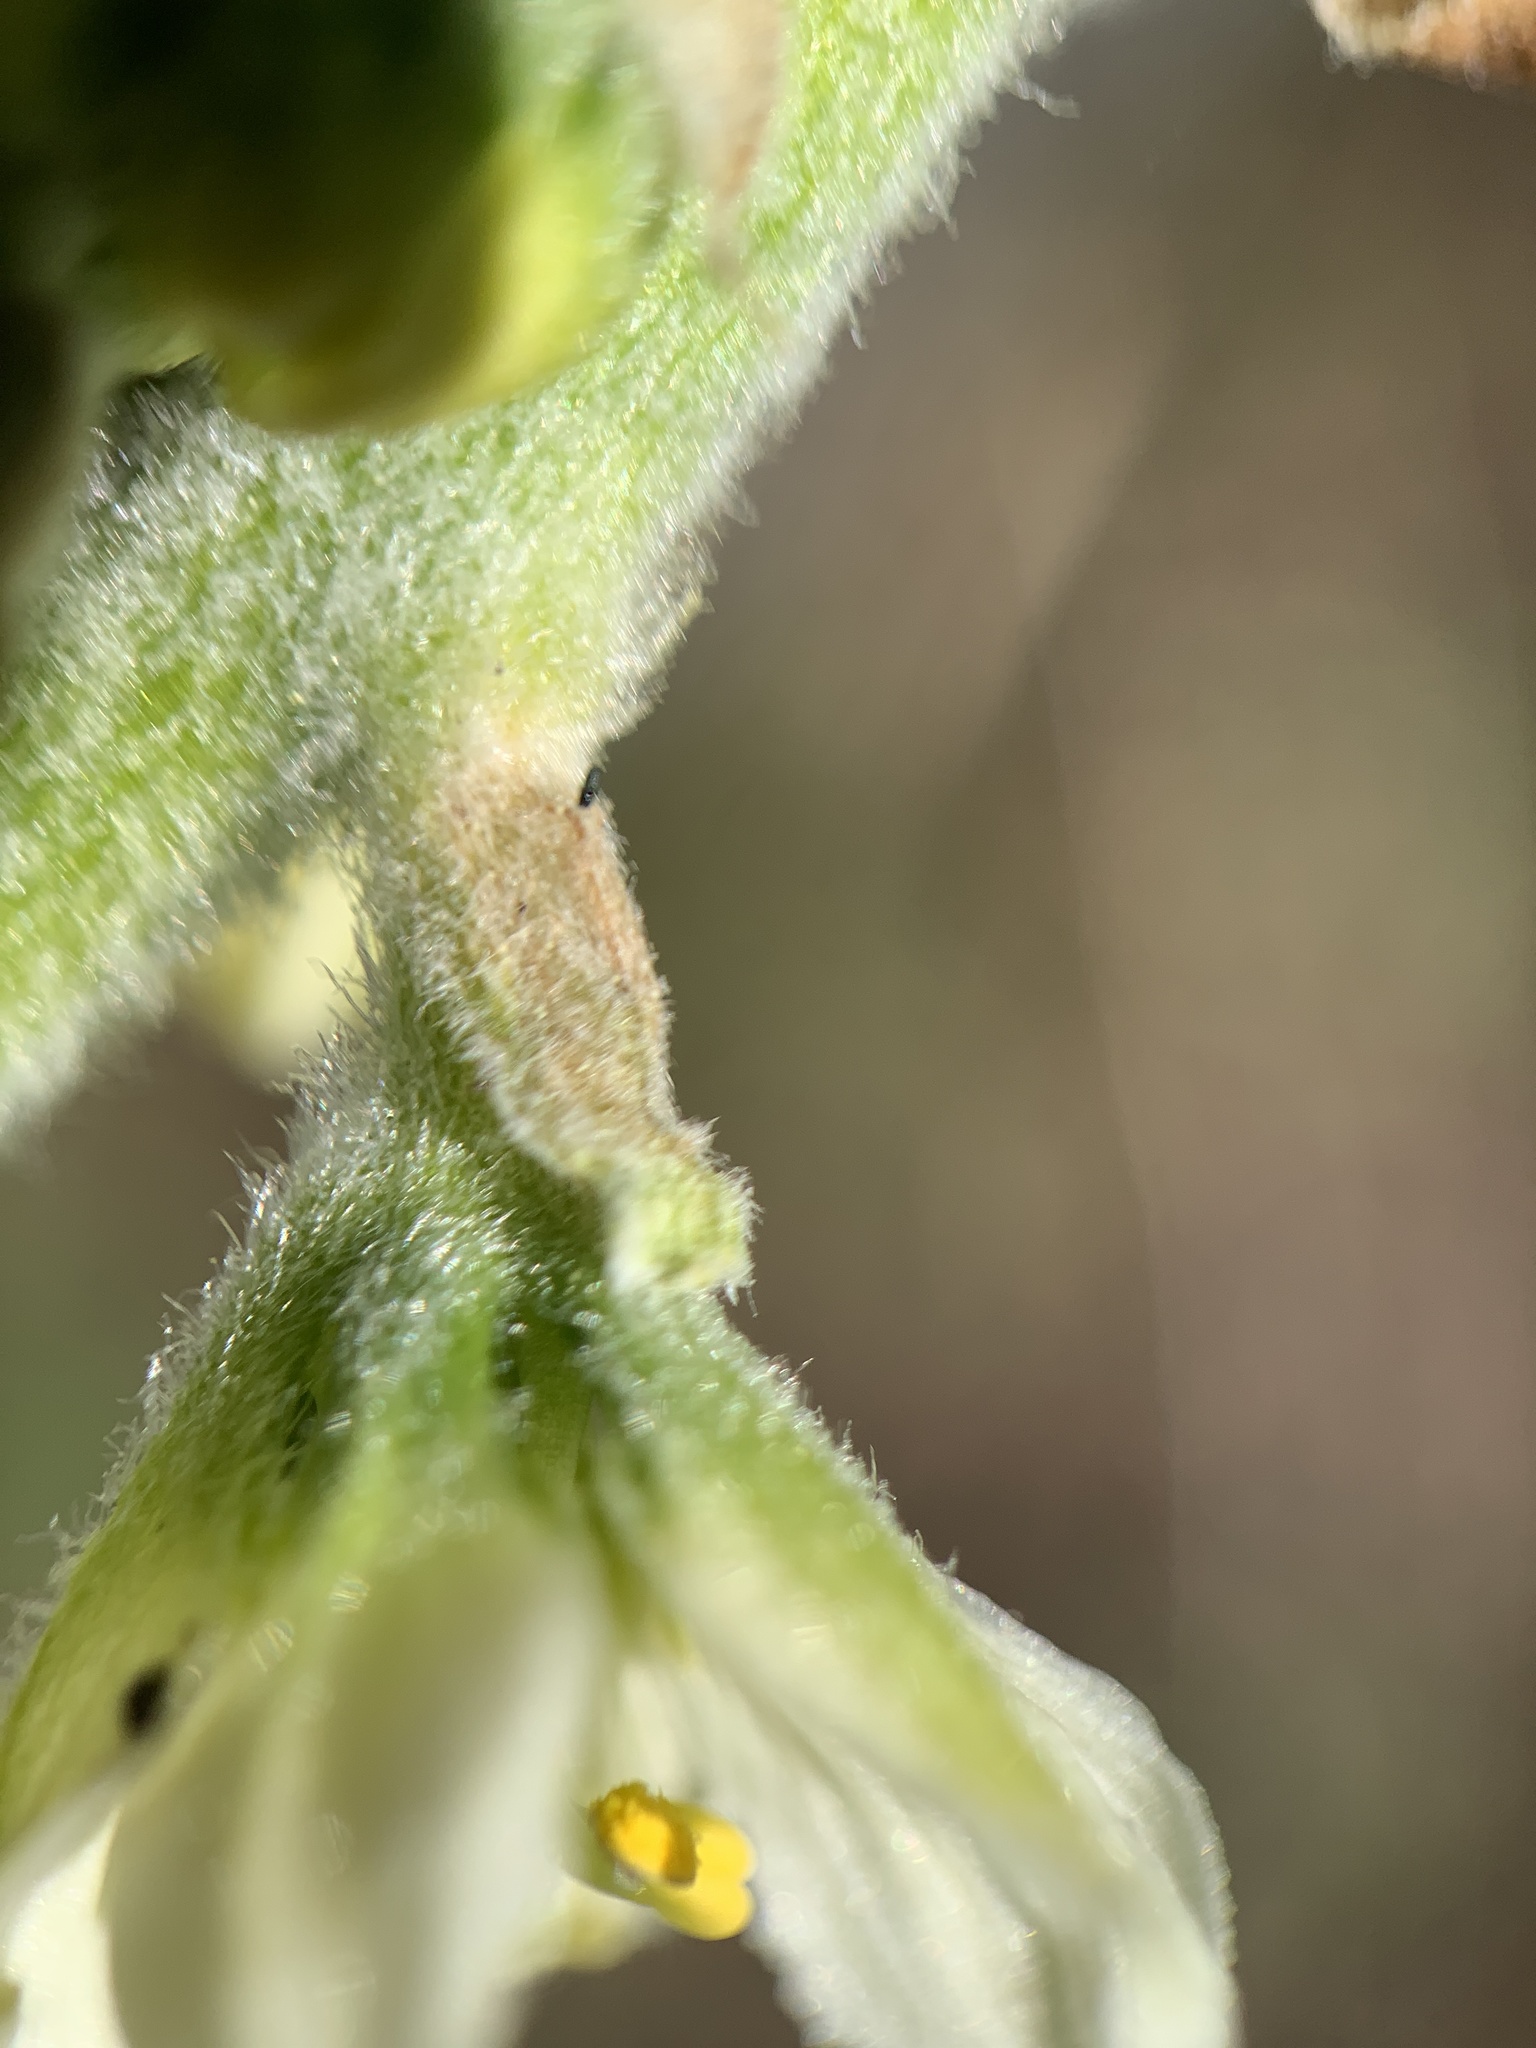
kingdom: Plantae
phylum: Tracheophyta
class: Liliopsida
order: Liliales
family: Melanthiaceae
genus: Veratrum
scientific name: Veratrum californicum
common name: California veratrum
